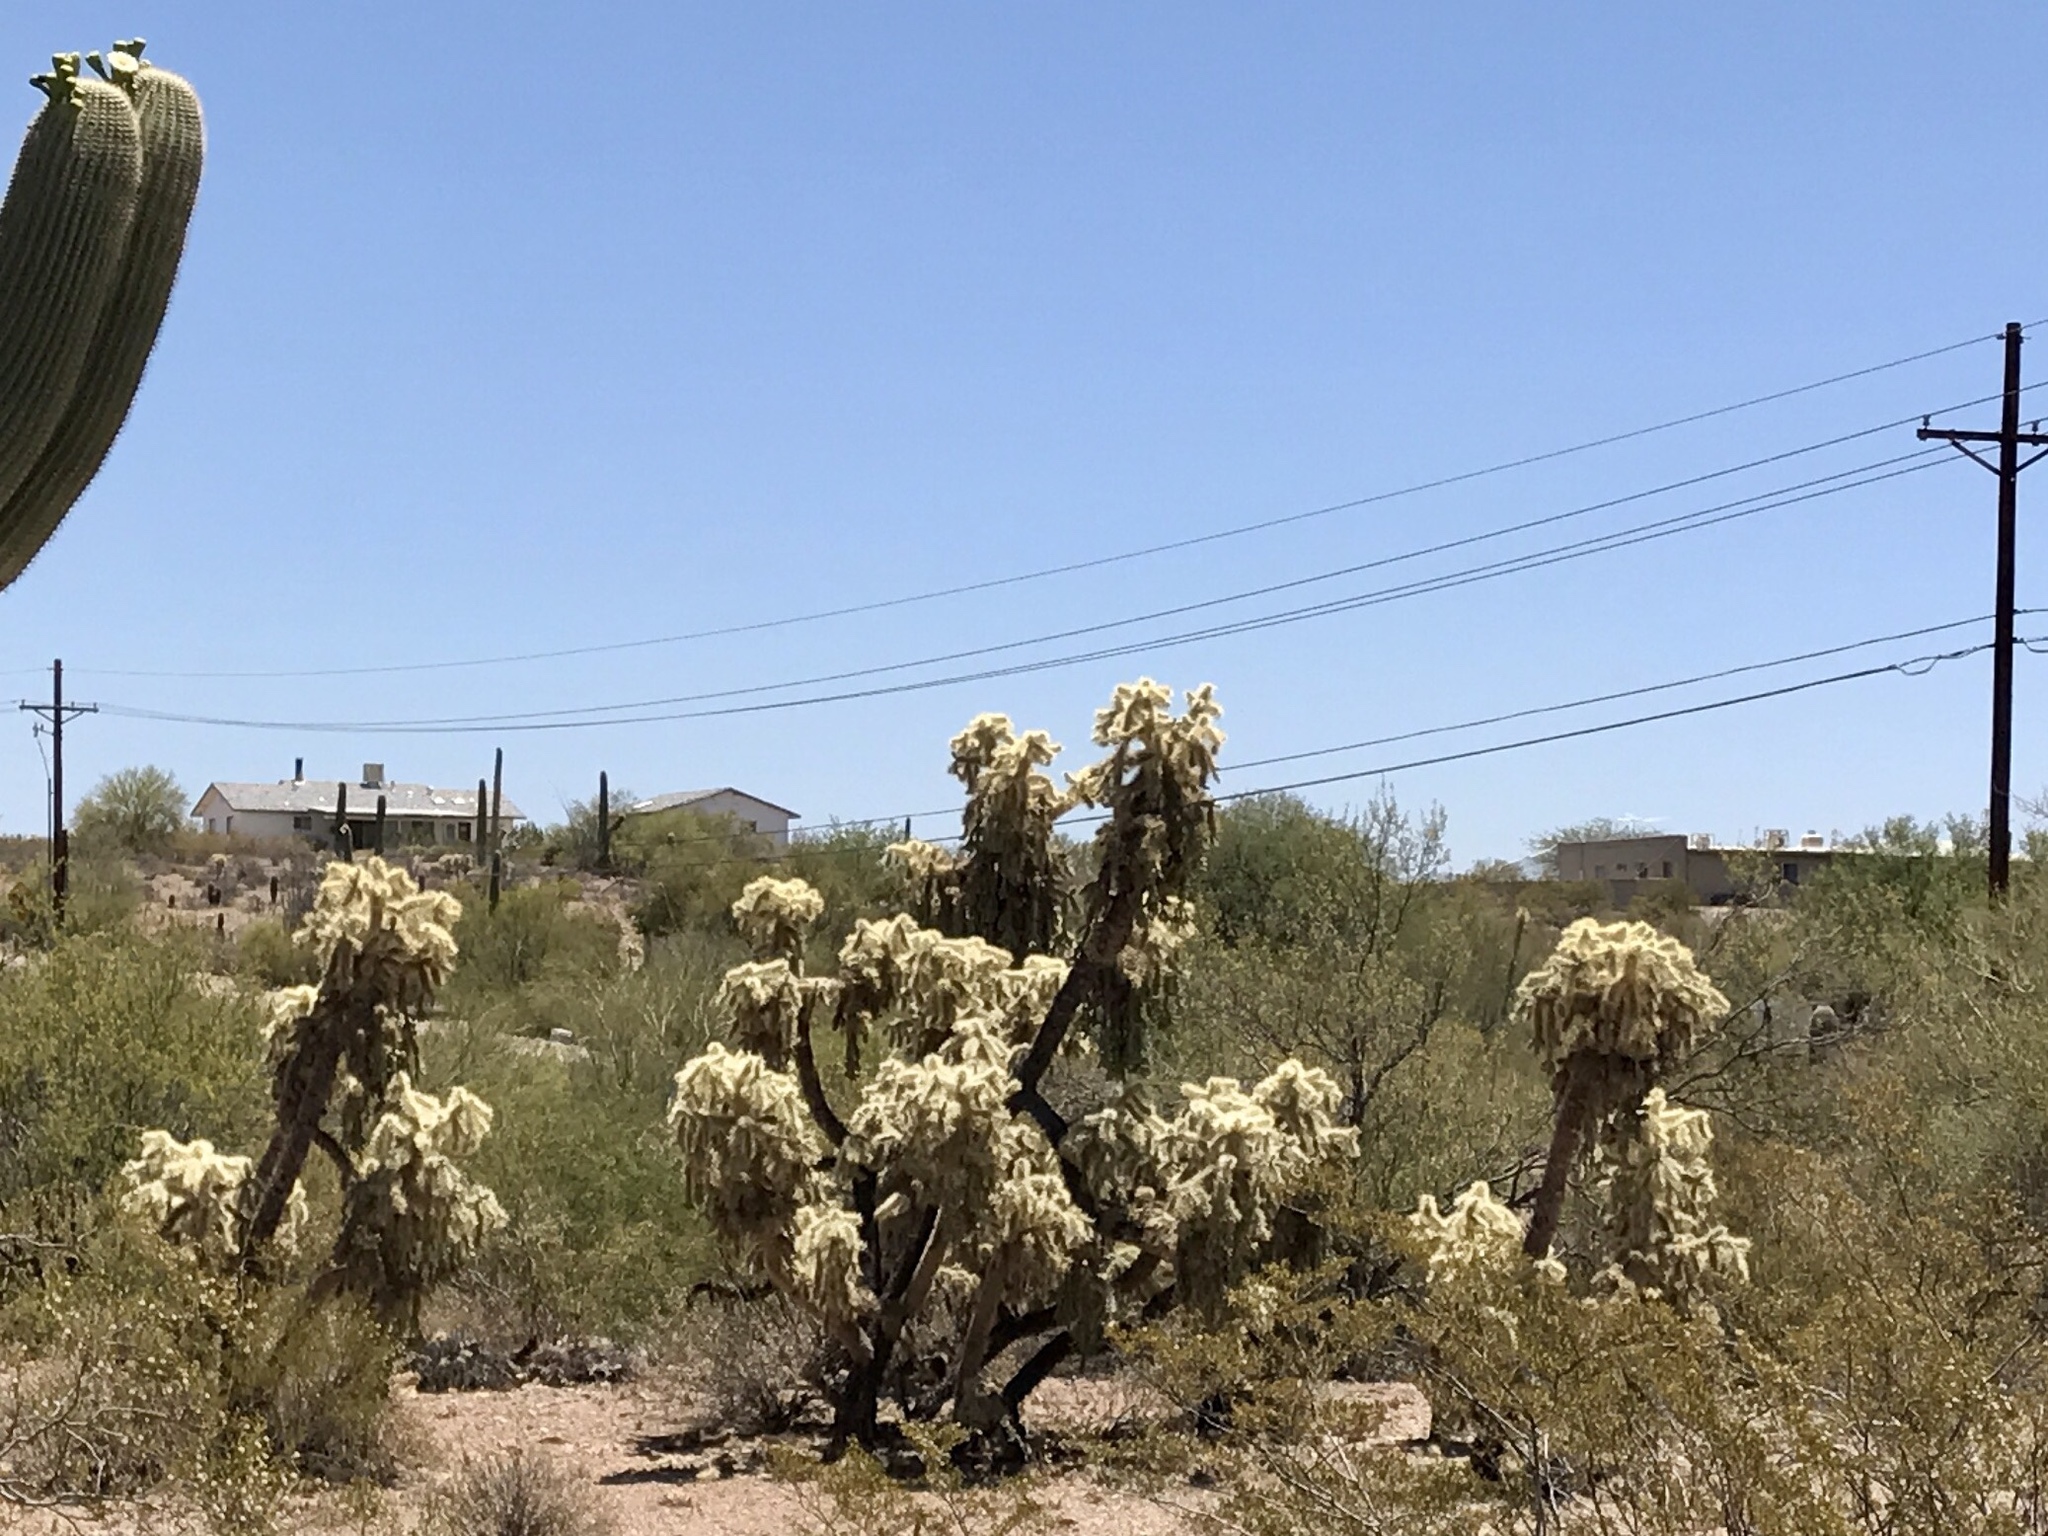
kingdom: Plantae
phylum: Tracheophyta
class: Magnoliopsida
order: Caryophyllales
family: Cactaceae
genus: Cylindropuntia
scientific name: Cylindropuntia fulgida
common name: Jumping cholla
